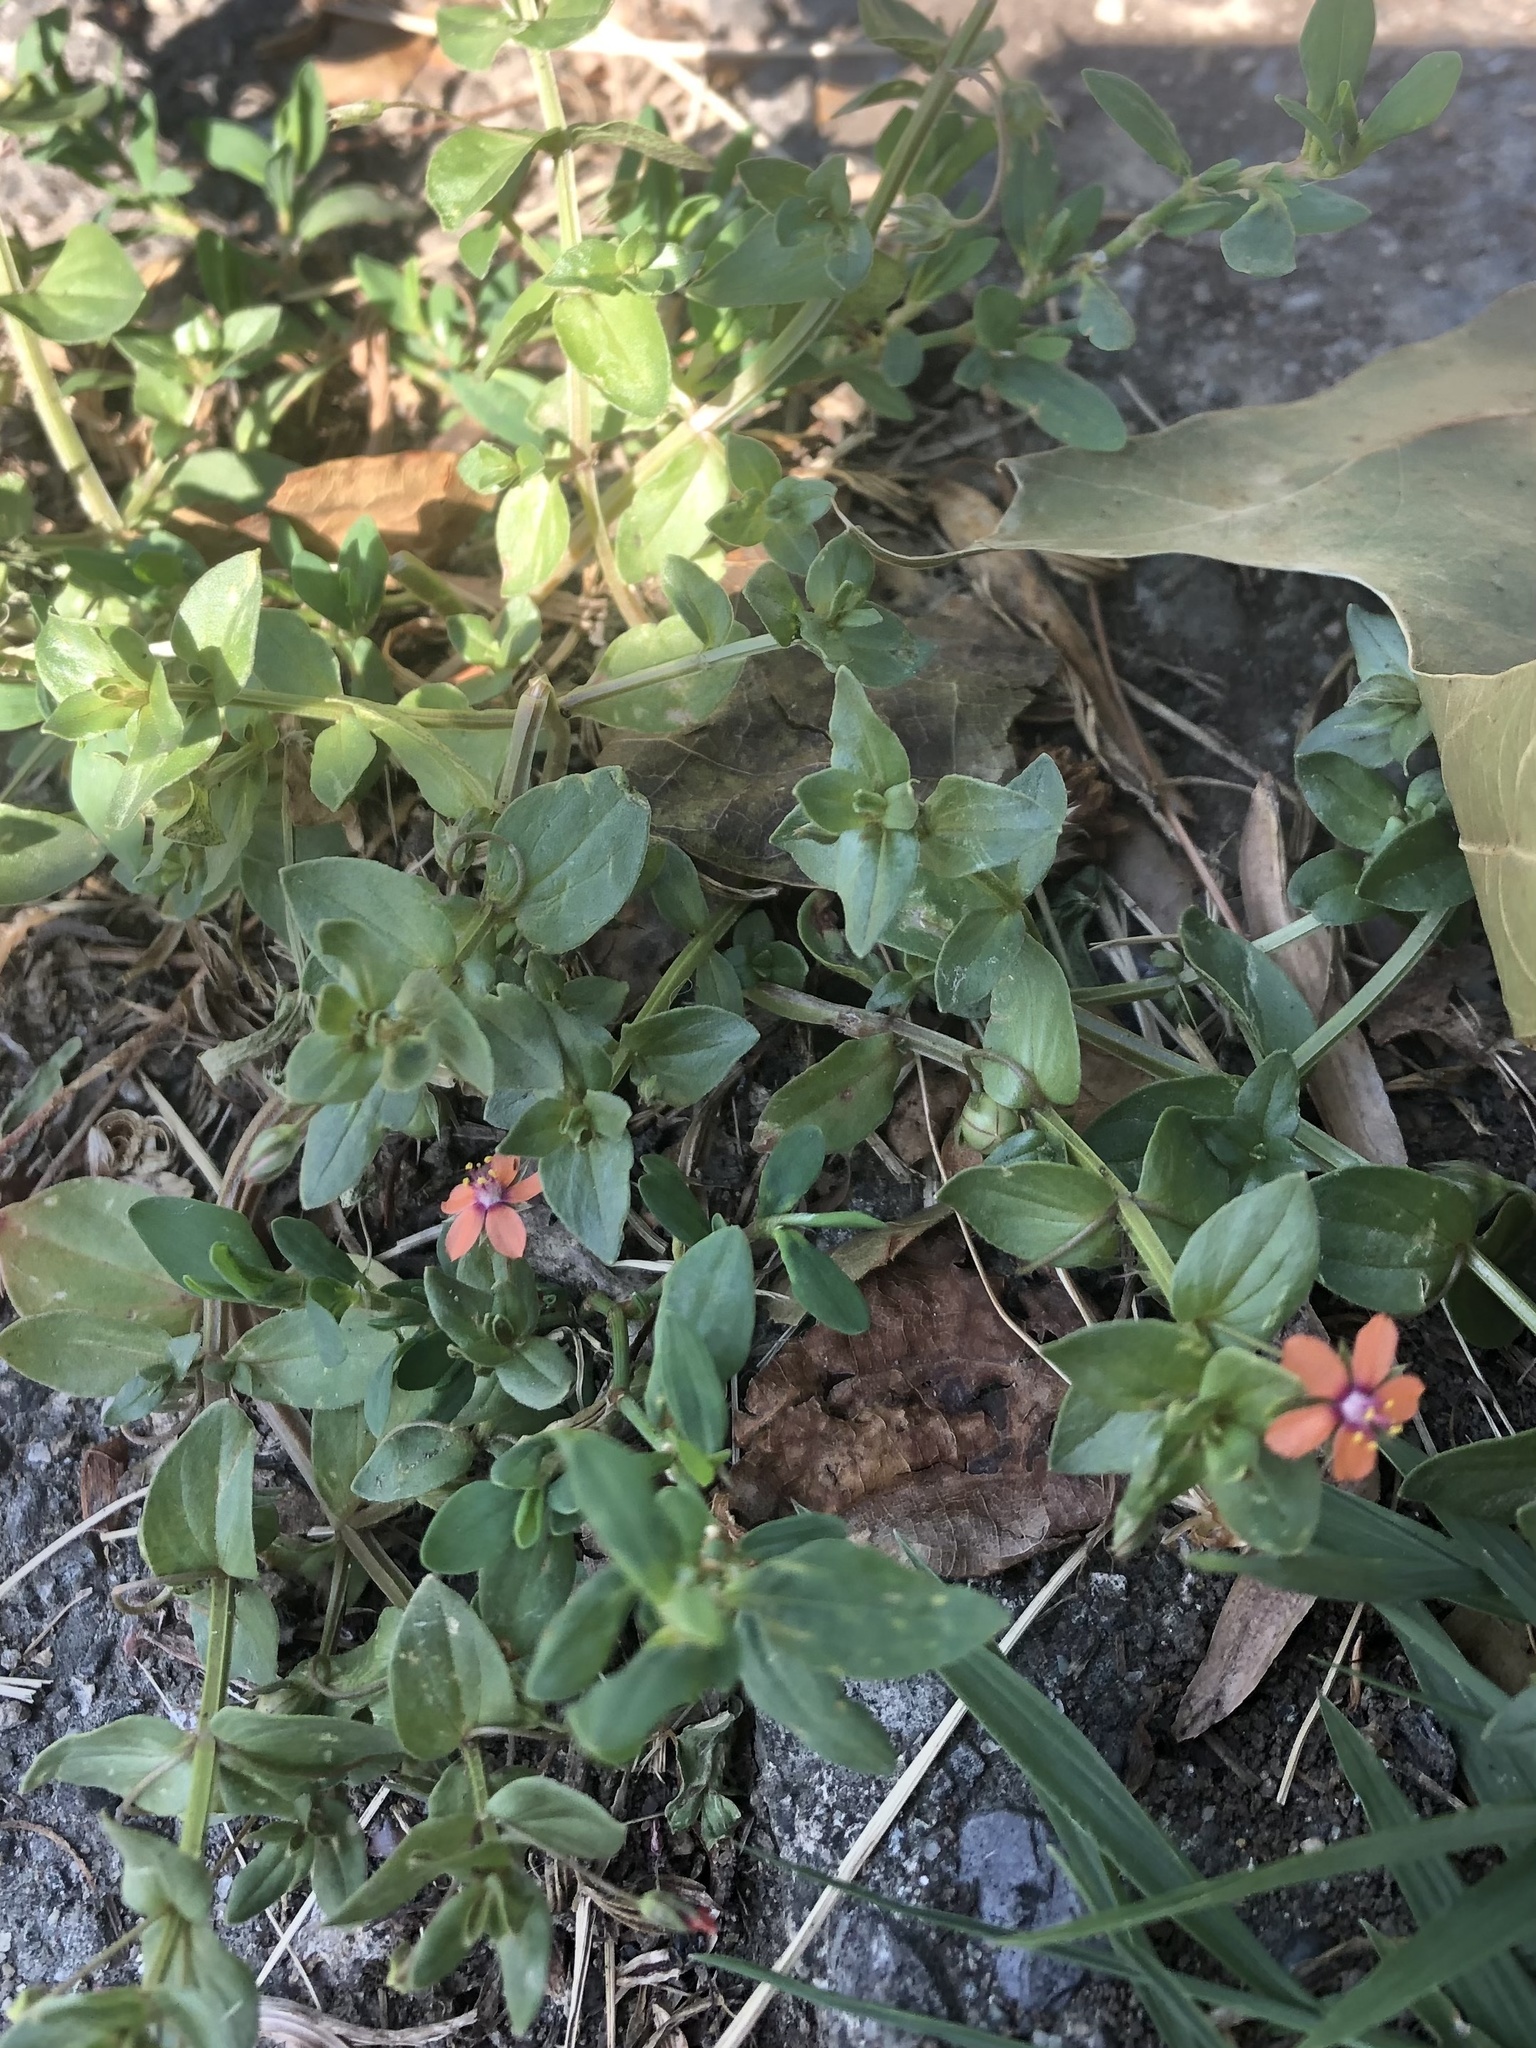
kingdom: Plantae
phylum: Tracheophyta
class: Magnoliopsida
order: Ericales
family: Primulaceae
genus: Lysimachia
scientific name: Lysimachia arvensis
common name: Scarlet pimpernel
